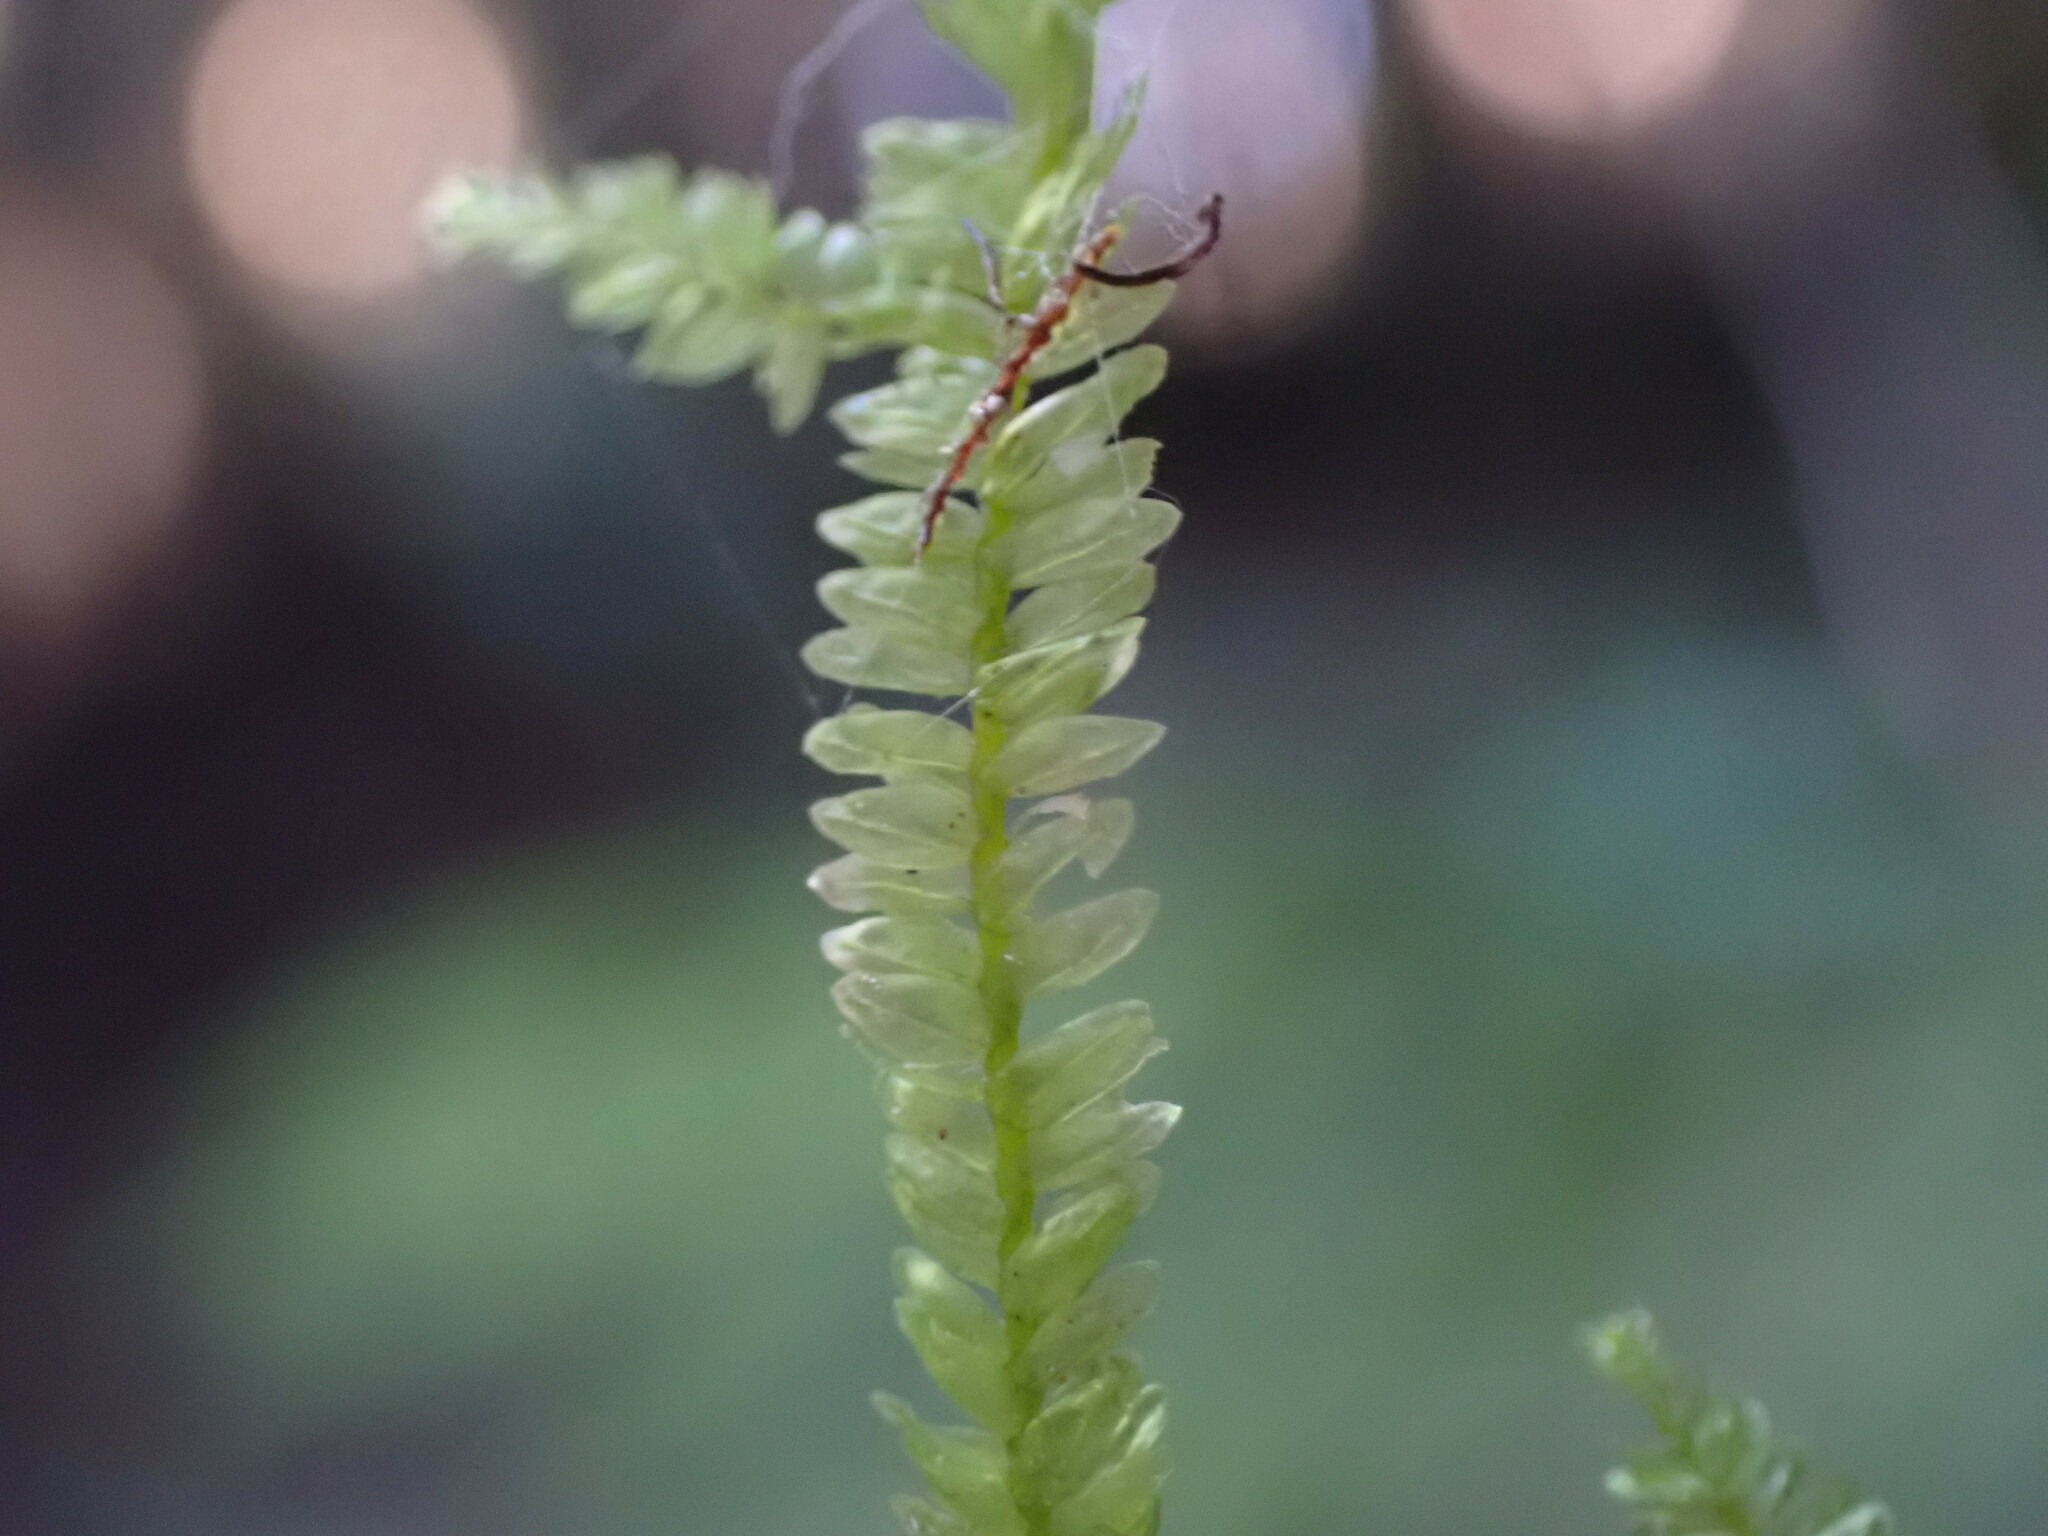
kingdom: Plantae
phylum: Bryophyta
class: Bryopsida
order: Hypnales
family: Neckeraceae
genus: Dannorrisia
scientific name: Dannorrisia bigelovii
